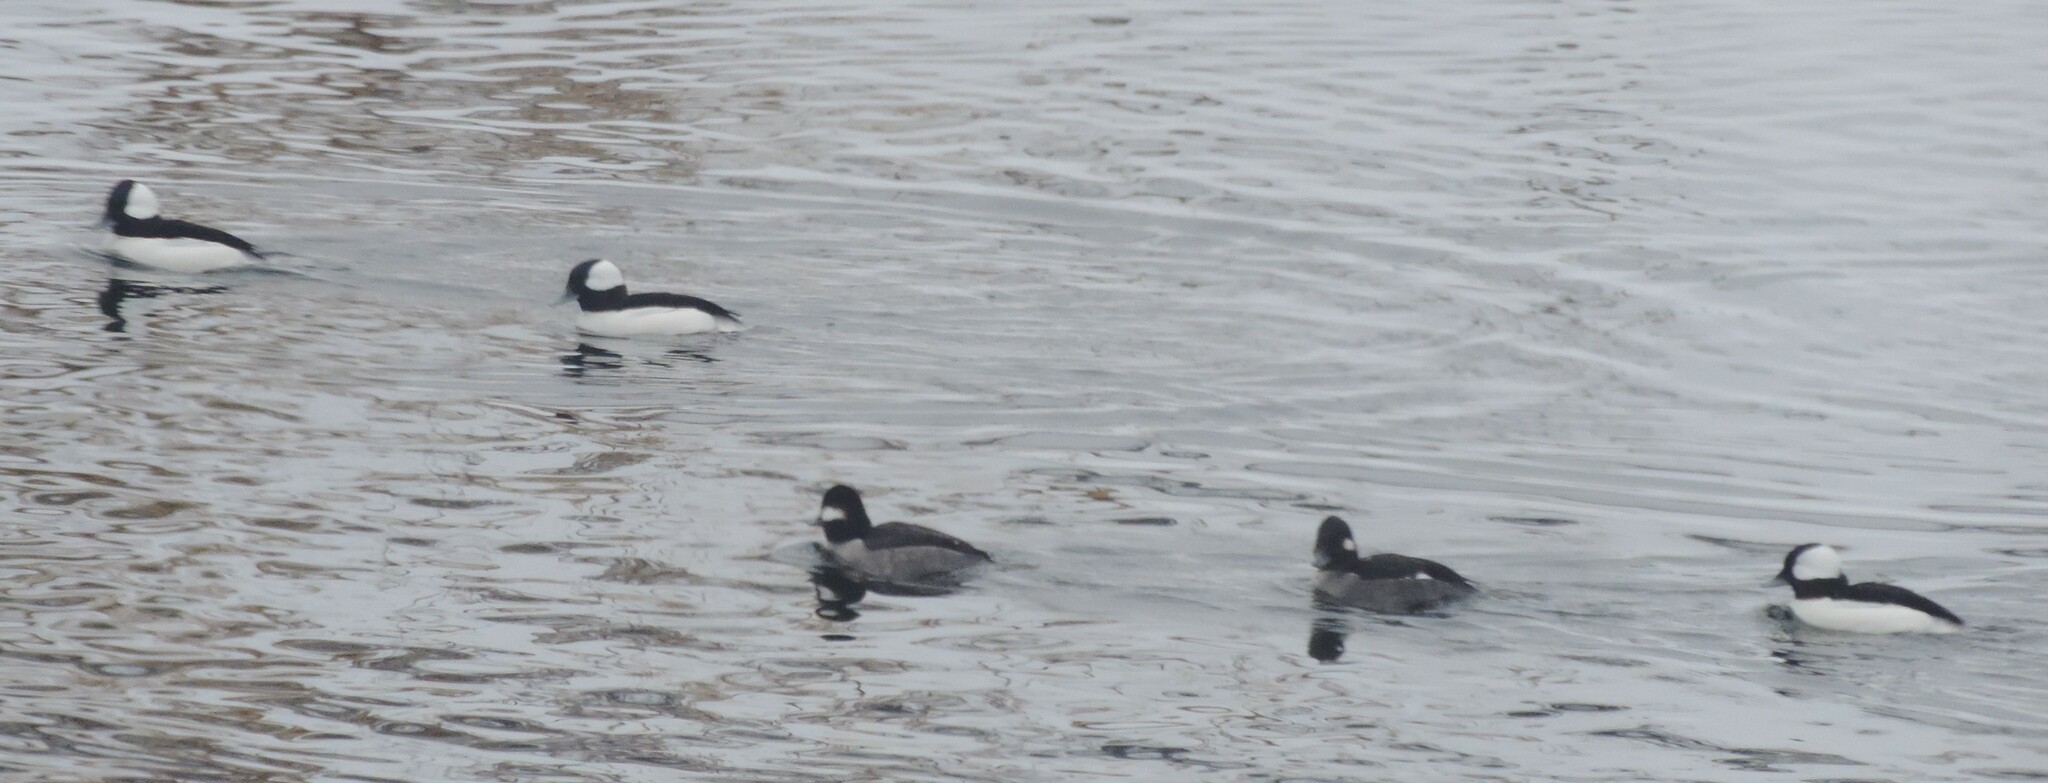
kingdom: Animalia
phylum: Chordata
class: Aves
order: Anseriformes
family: Anatidae
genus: Bucephala
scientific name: Bucephala albeola
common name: Bufflehead
